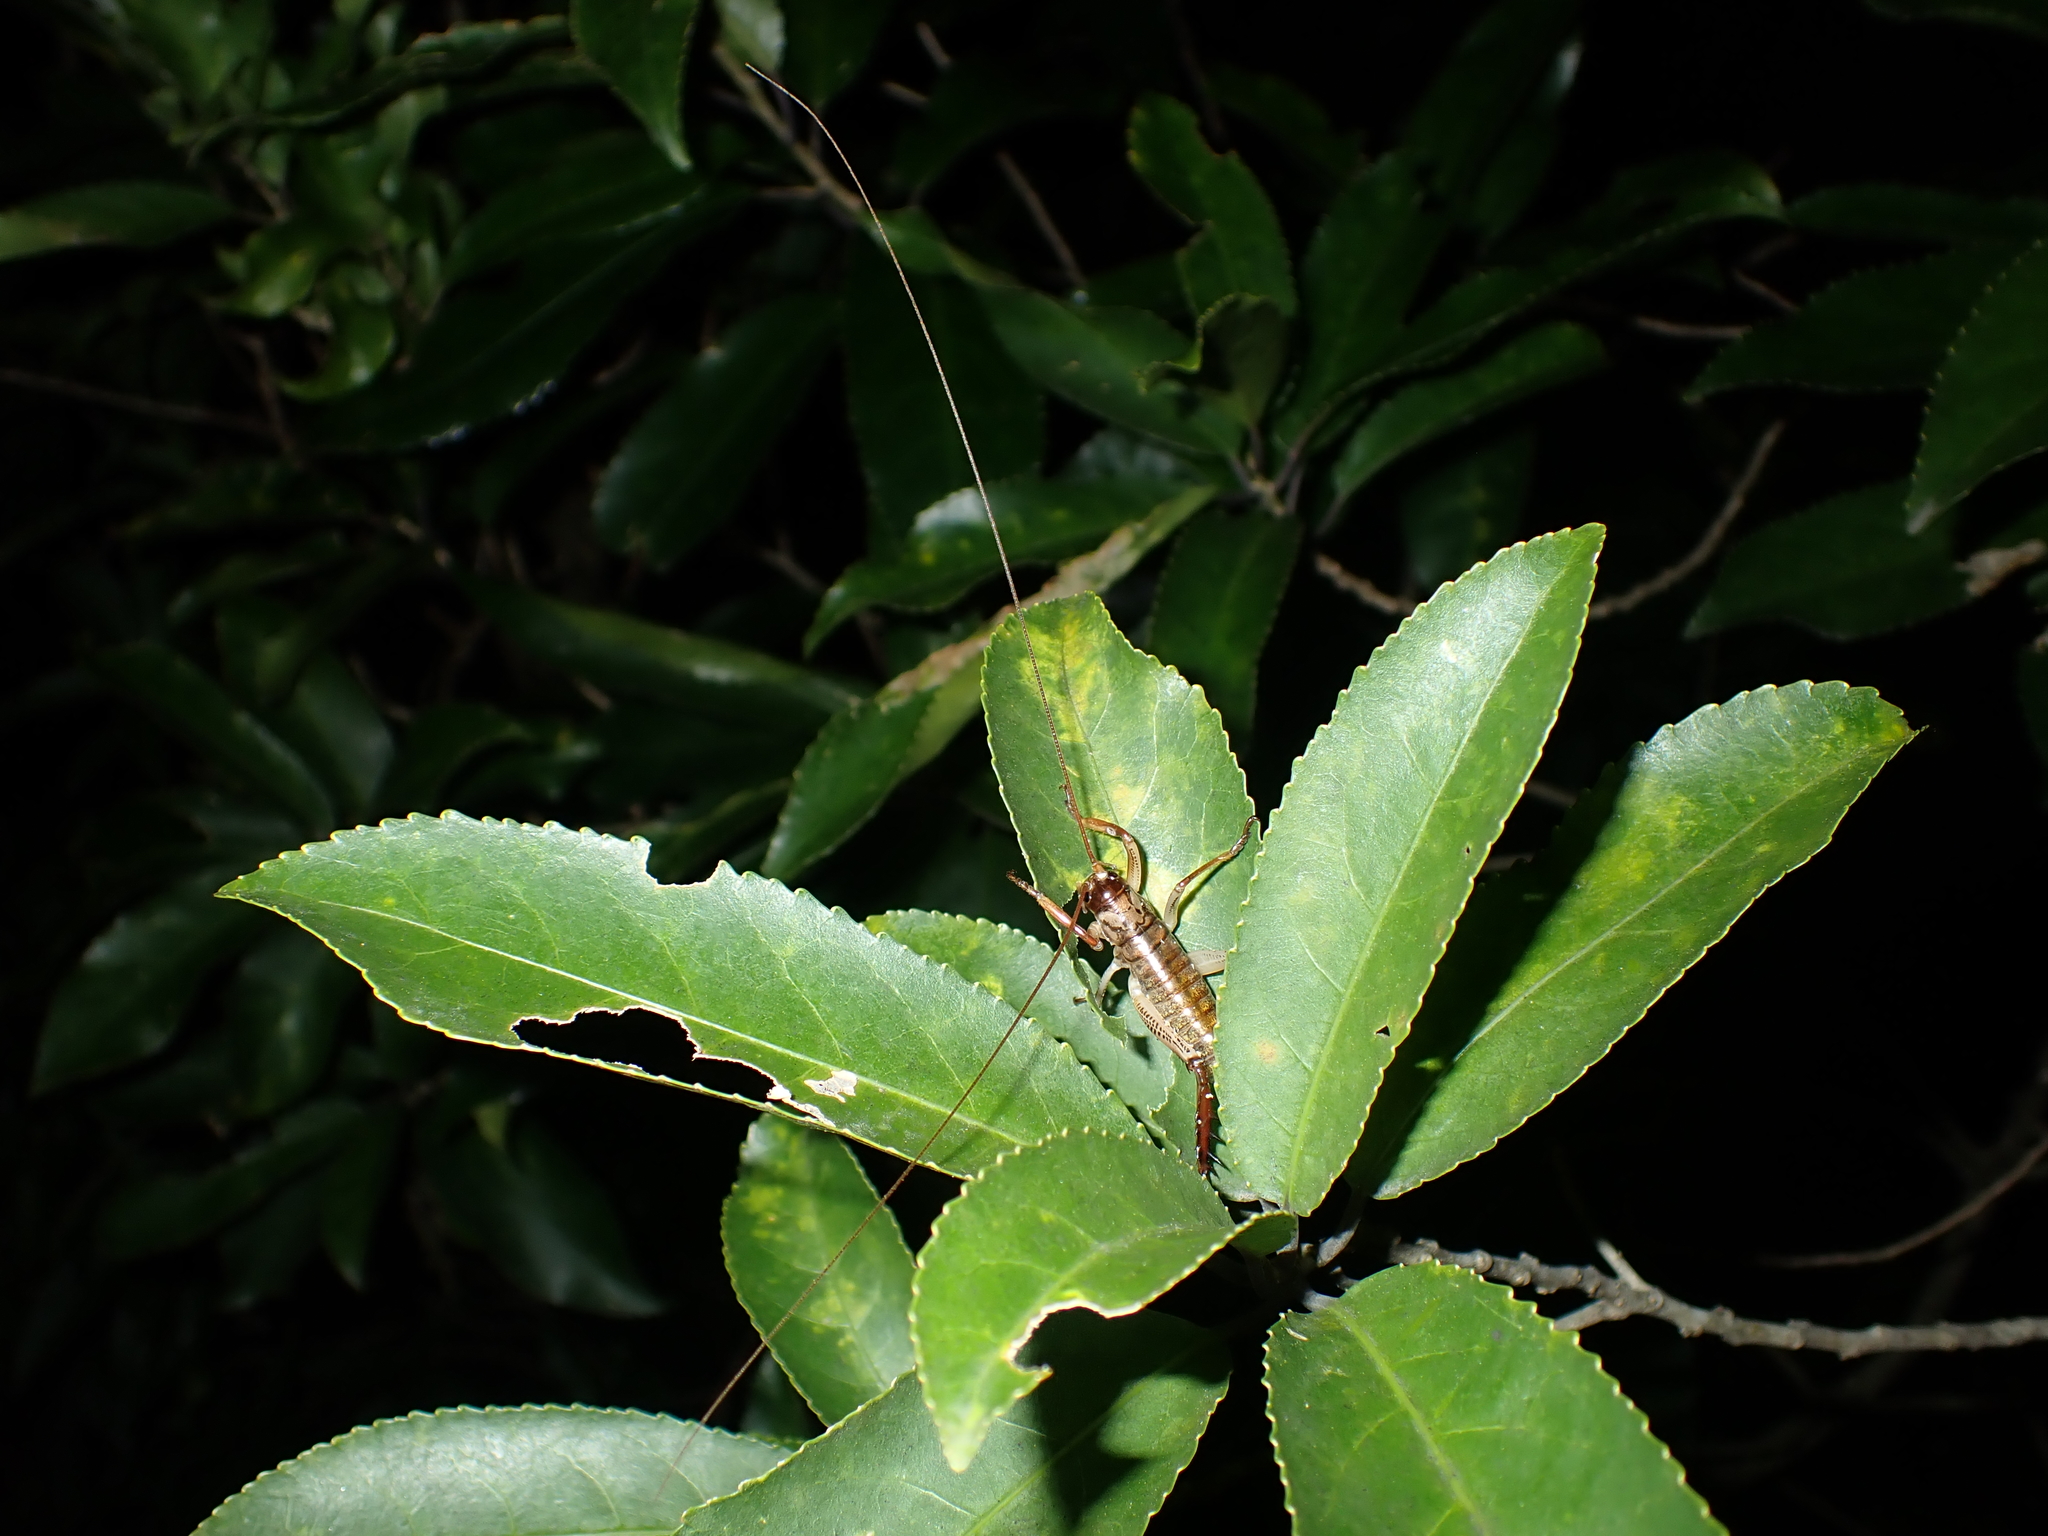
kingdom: Animalia
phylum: Arthropoda
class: Insecta
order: Orthoptera
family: Anostostomatidae
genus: Hemideina
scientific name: Hemideina thoracica
